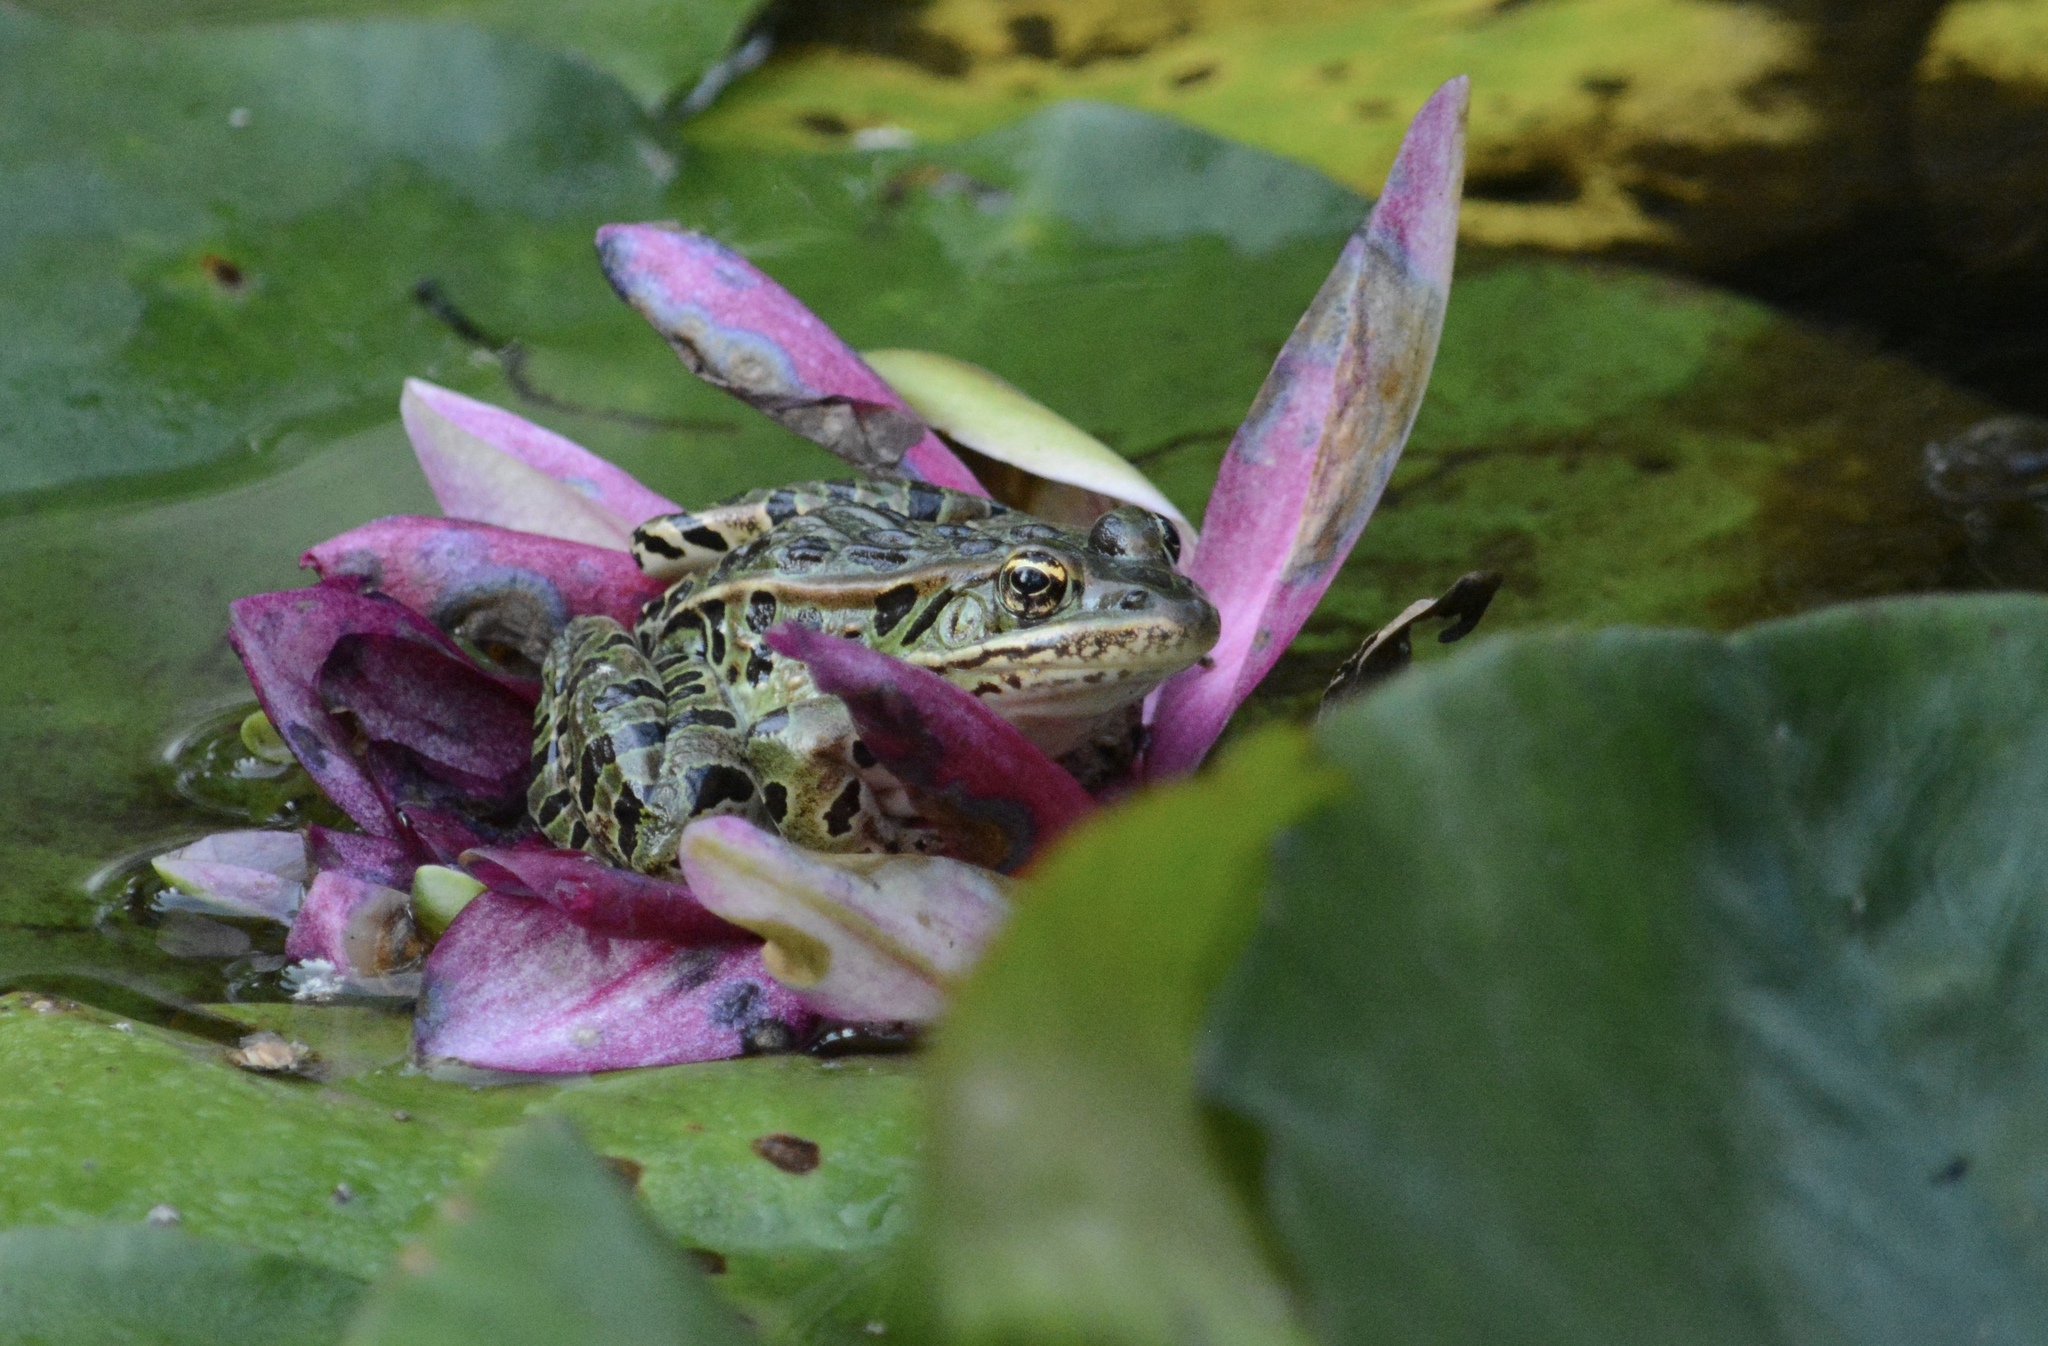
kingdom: Animalia
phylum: Chordata
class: Amphibia
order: Anura
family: Ranidae
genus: Lithobates
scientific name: Lithobates pipiens
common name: Northern leopard frog
